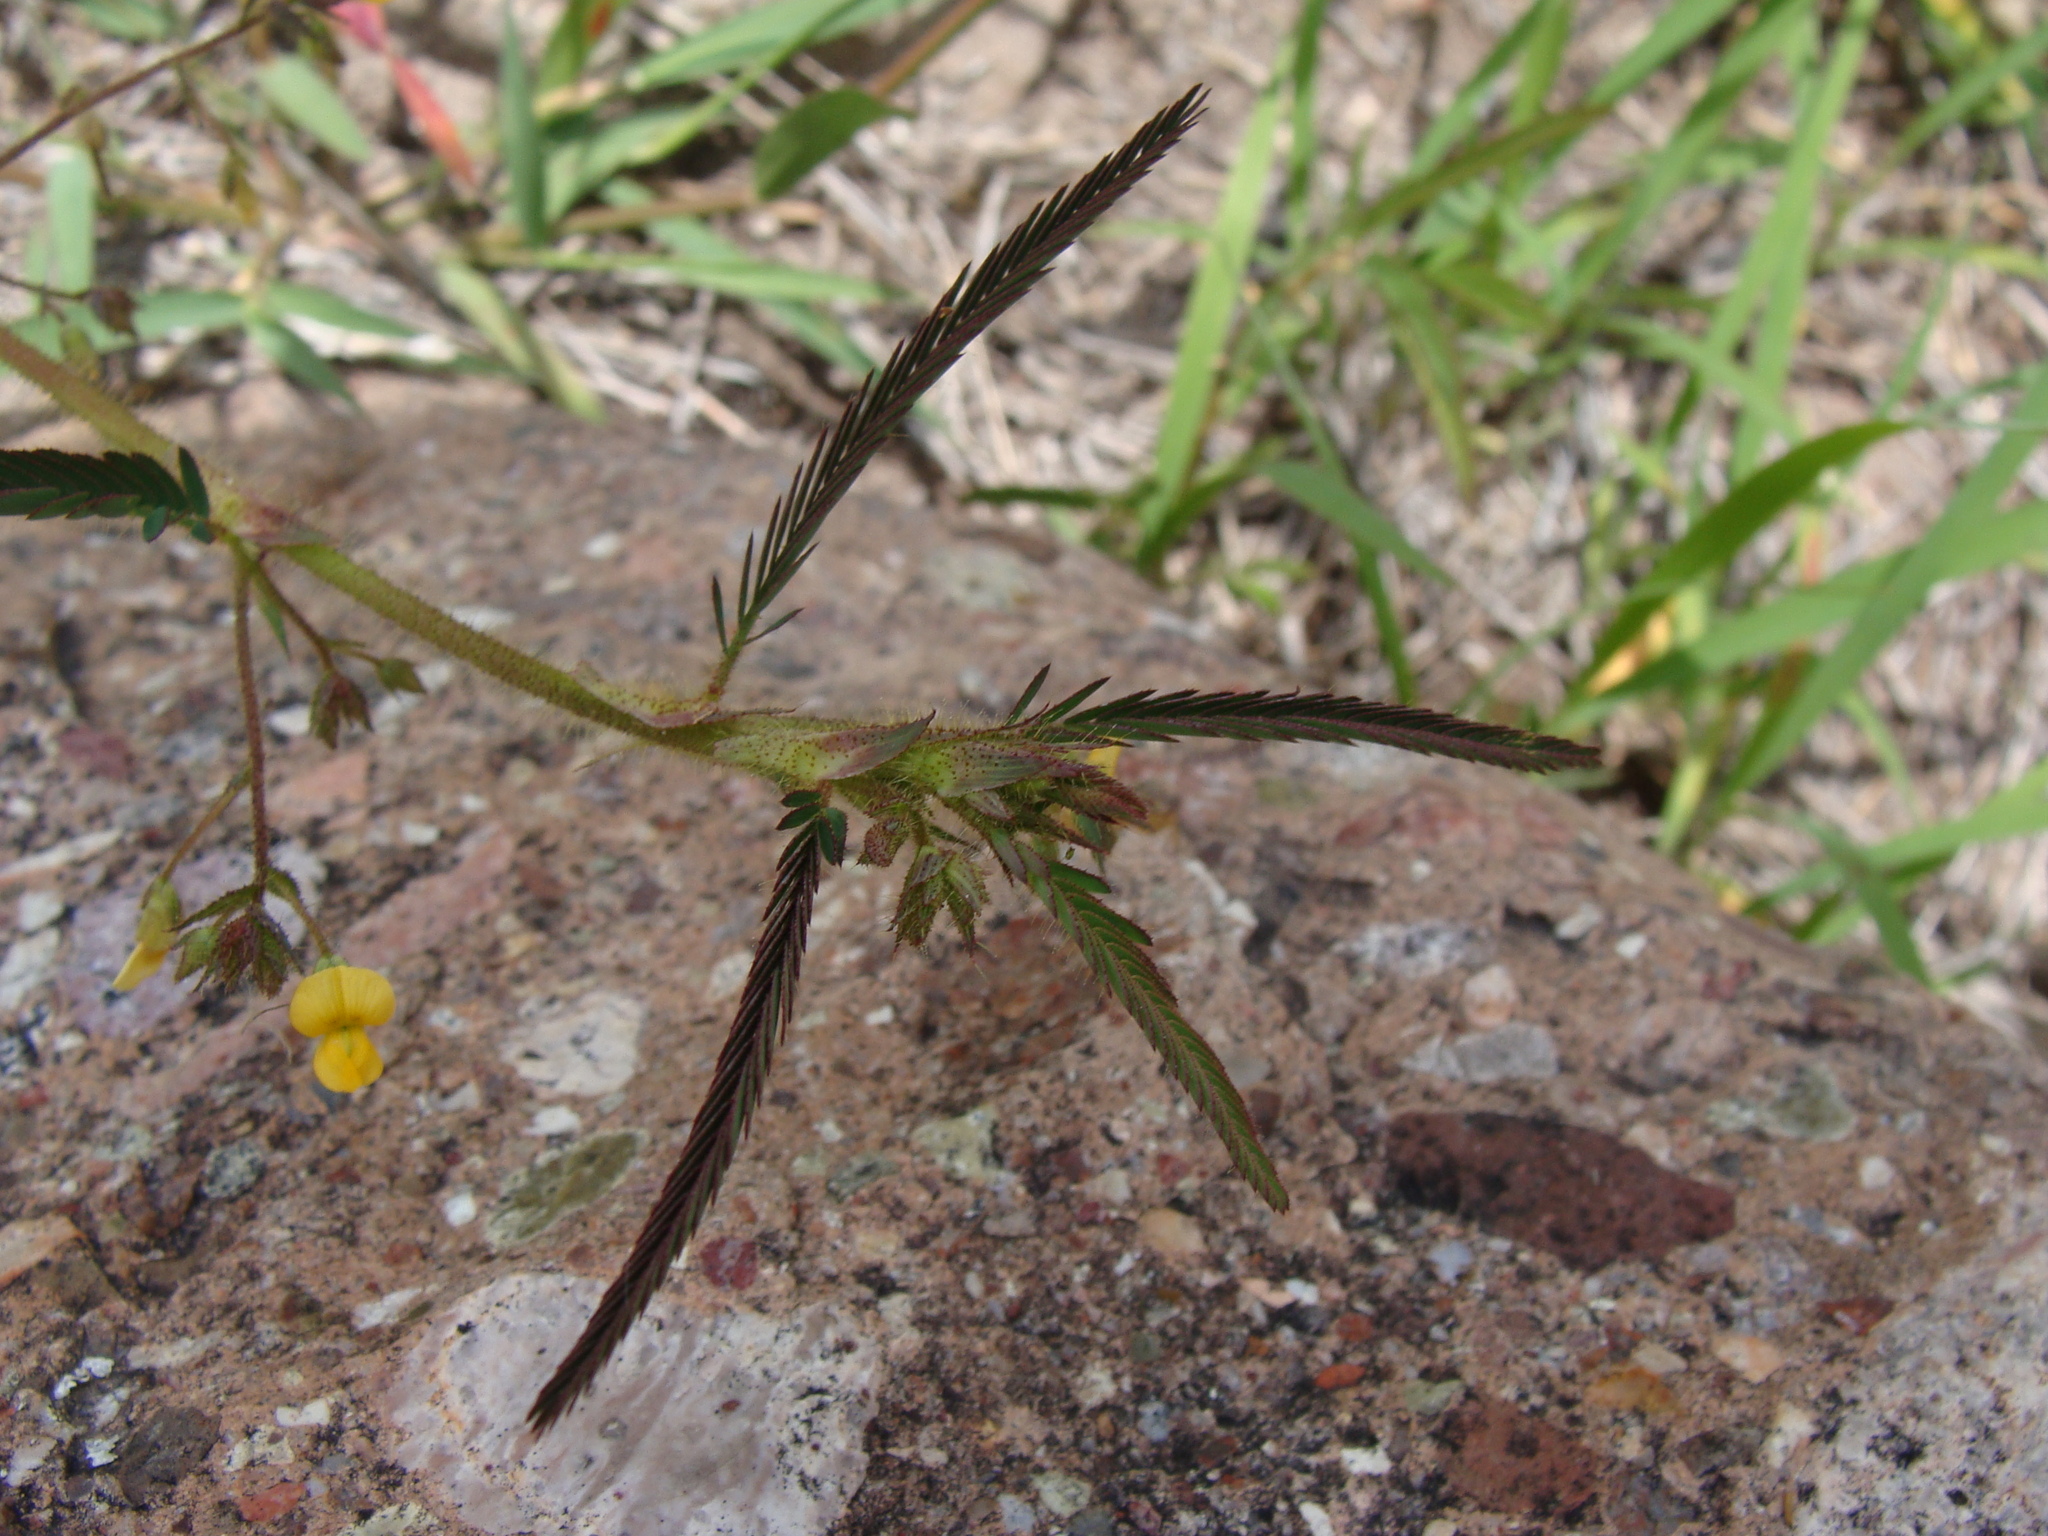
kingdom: Plantae
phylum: Tracheophyta
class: Magnoliopsida
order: Fabales
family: Fabaceae
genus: Aeschynomene
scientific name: Aeschynomene villosa
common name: Hairy-jointvetch
